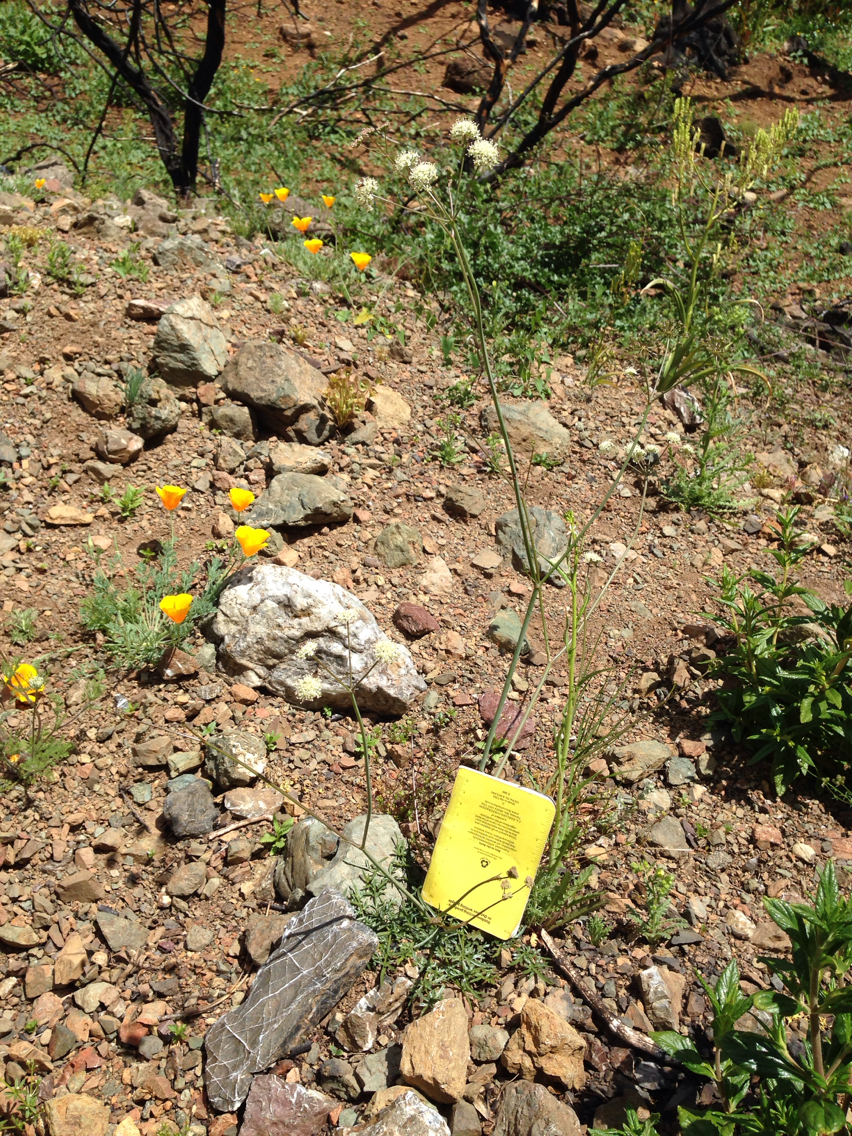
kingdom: Plantae
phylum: Tracheophyta
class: Magnoliopsida
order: Apiales
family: Apiaceae
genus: Perideridia
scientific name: Perideridia californica
